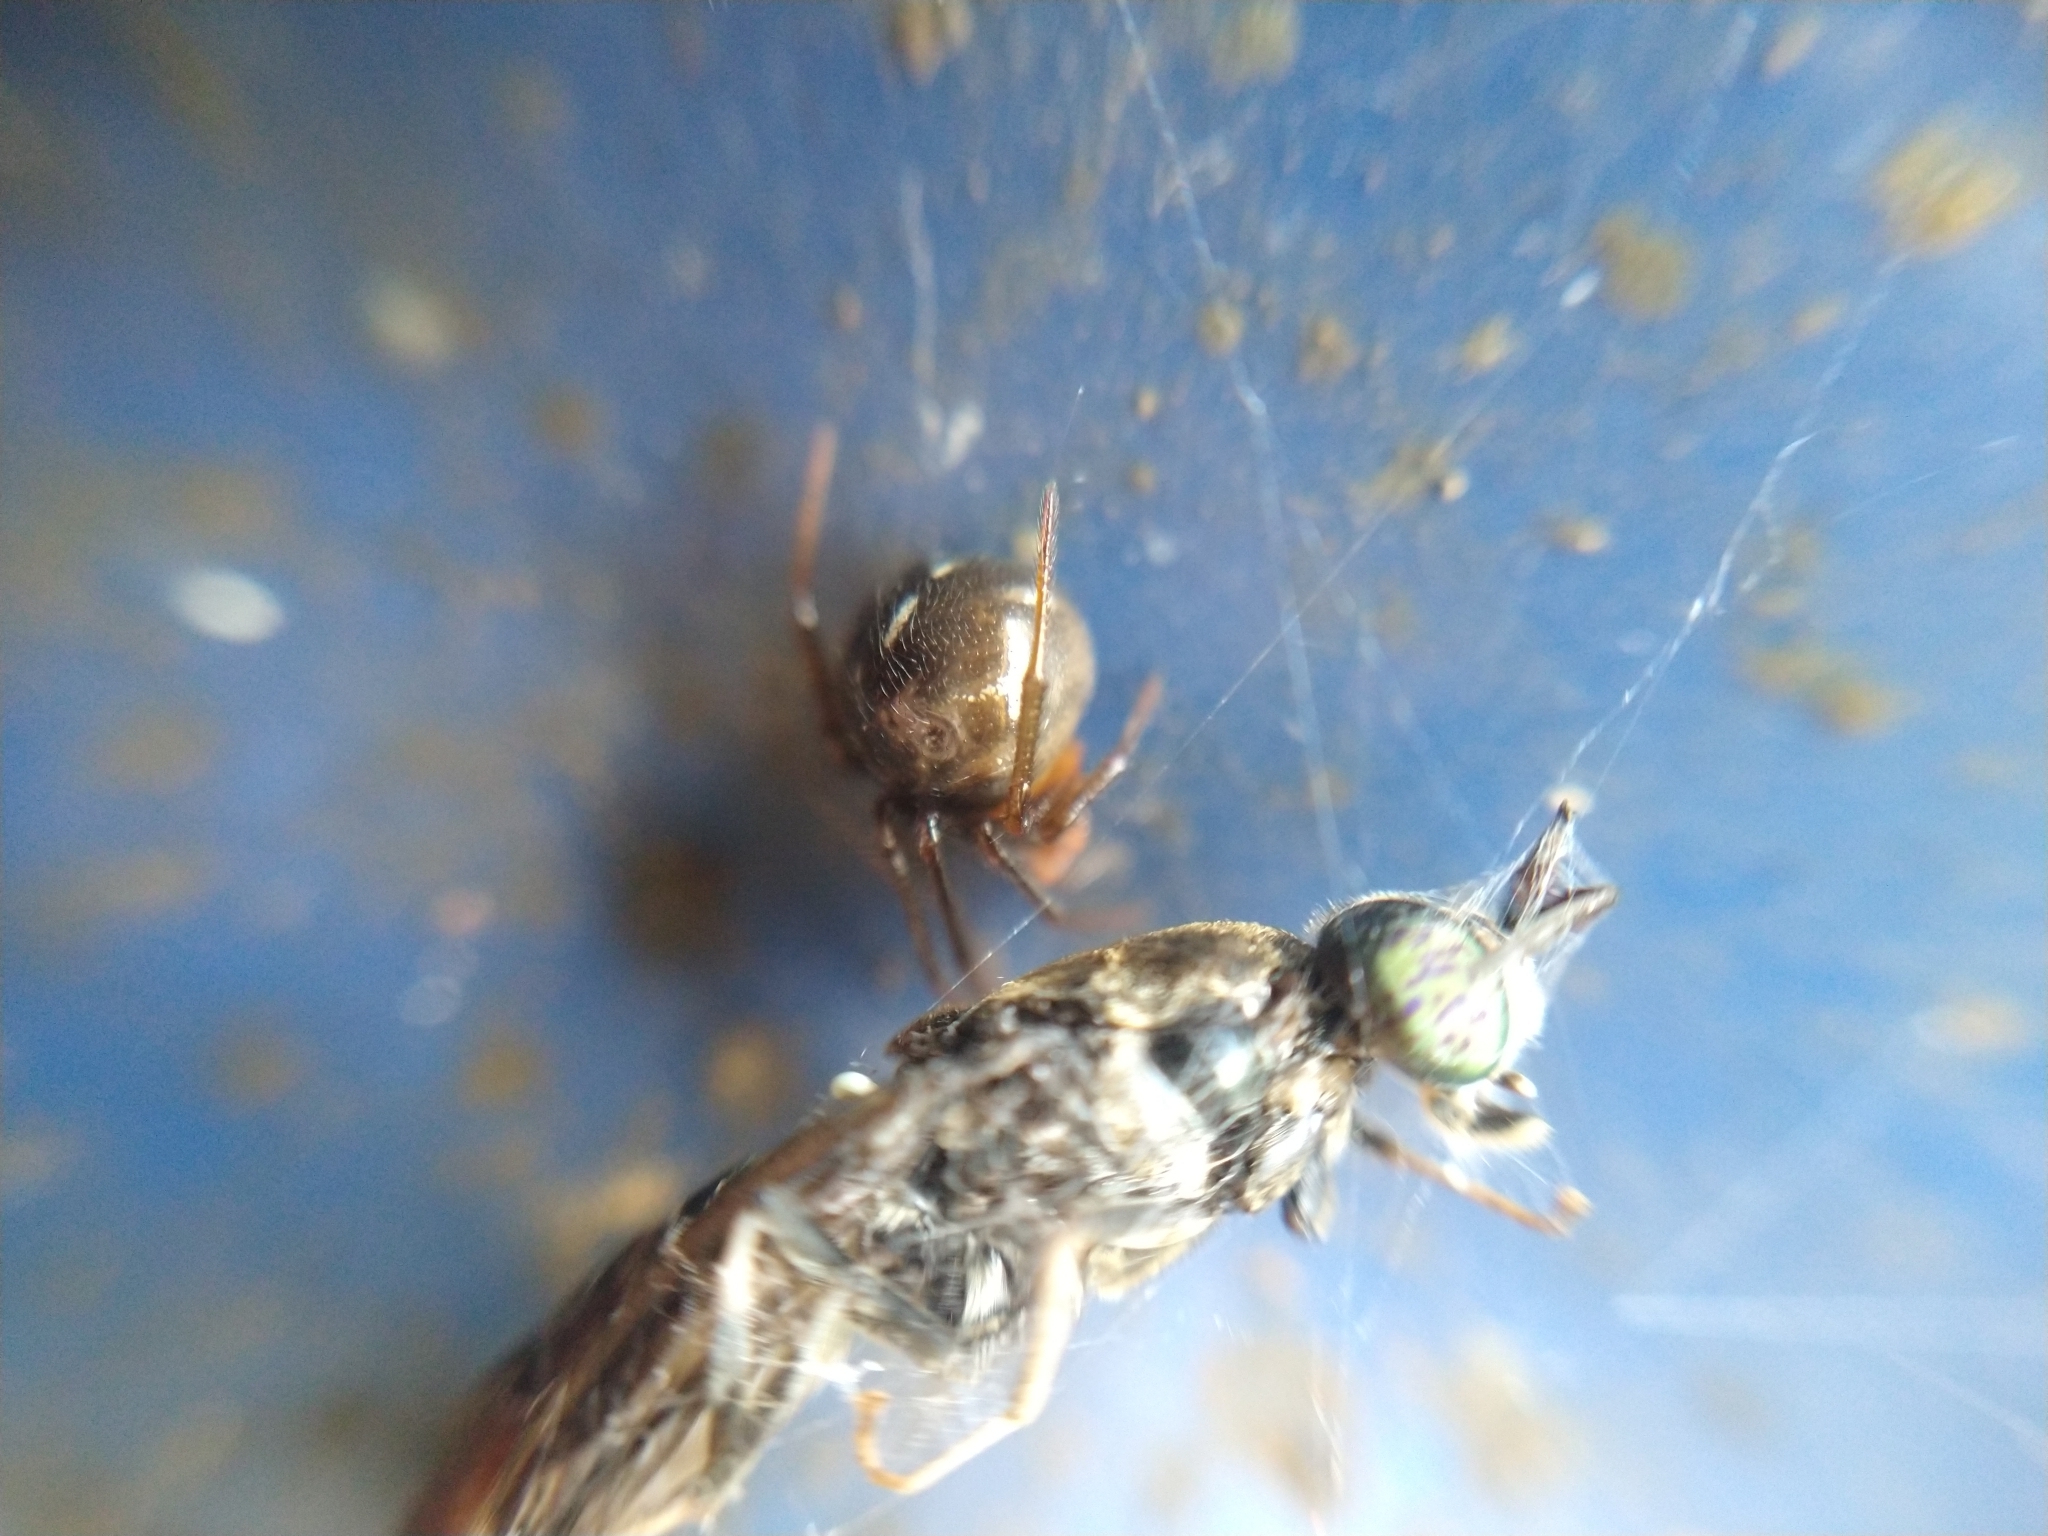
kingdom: Animalia
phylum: Arthropoda
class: Arachnida
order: Araneae
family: Theridiidae
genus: Nesticodes
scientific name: Nesticodes rufipes
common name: Cobweb spiders
